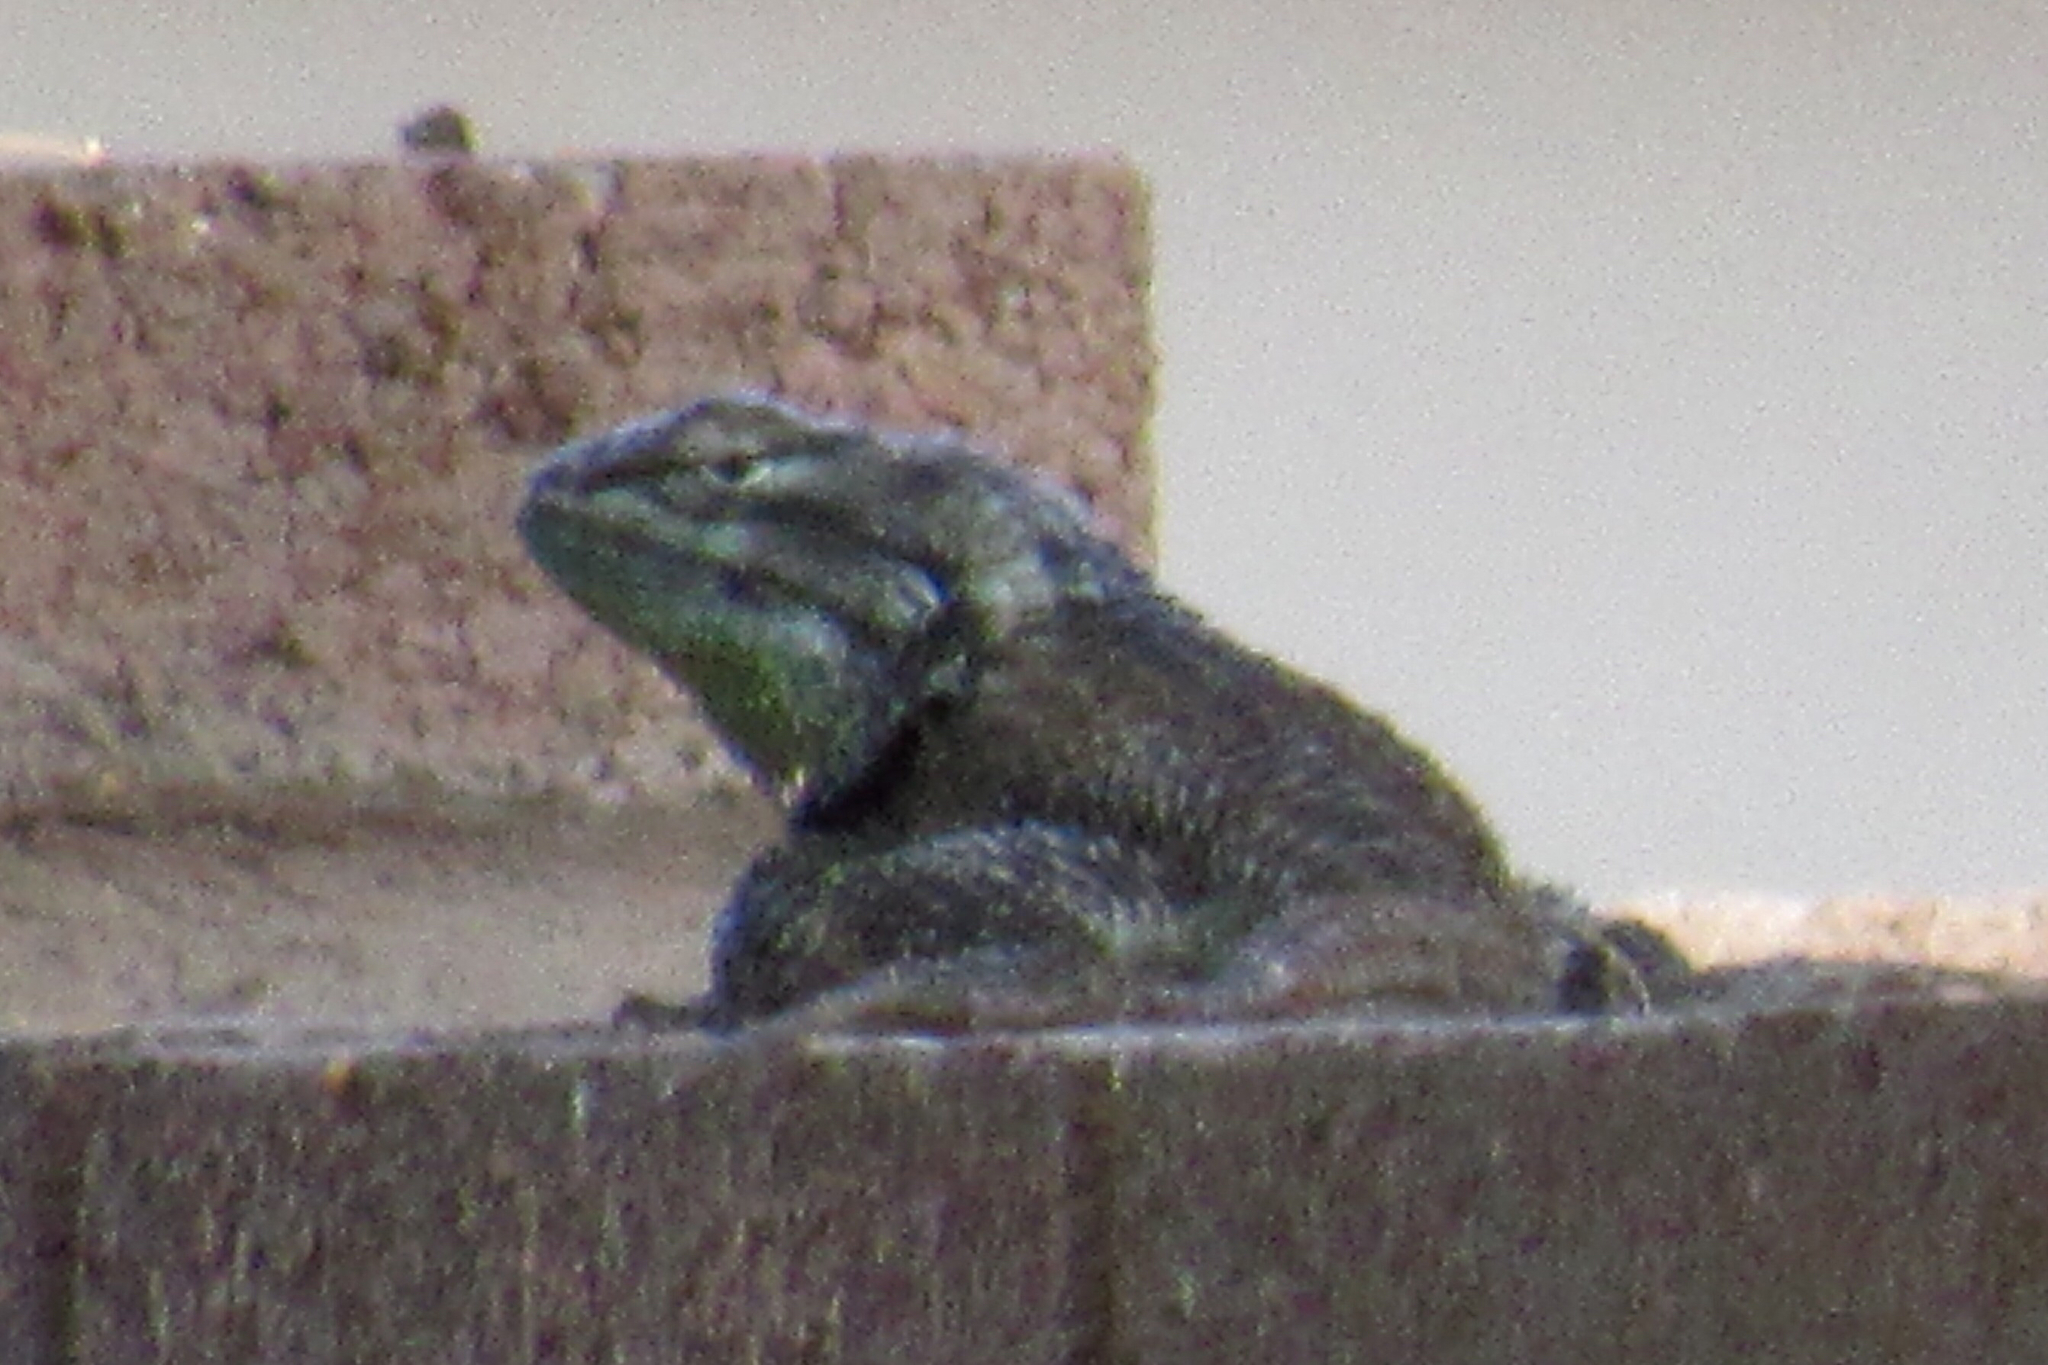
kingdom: Animalia
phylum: Chordata
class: Squamata
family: Phrynosomatidae
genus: Sceloporus
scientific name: Sceloporus clarkii
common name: Clark's spiny lizard
